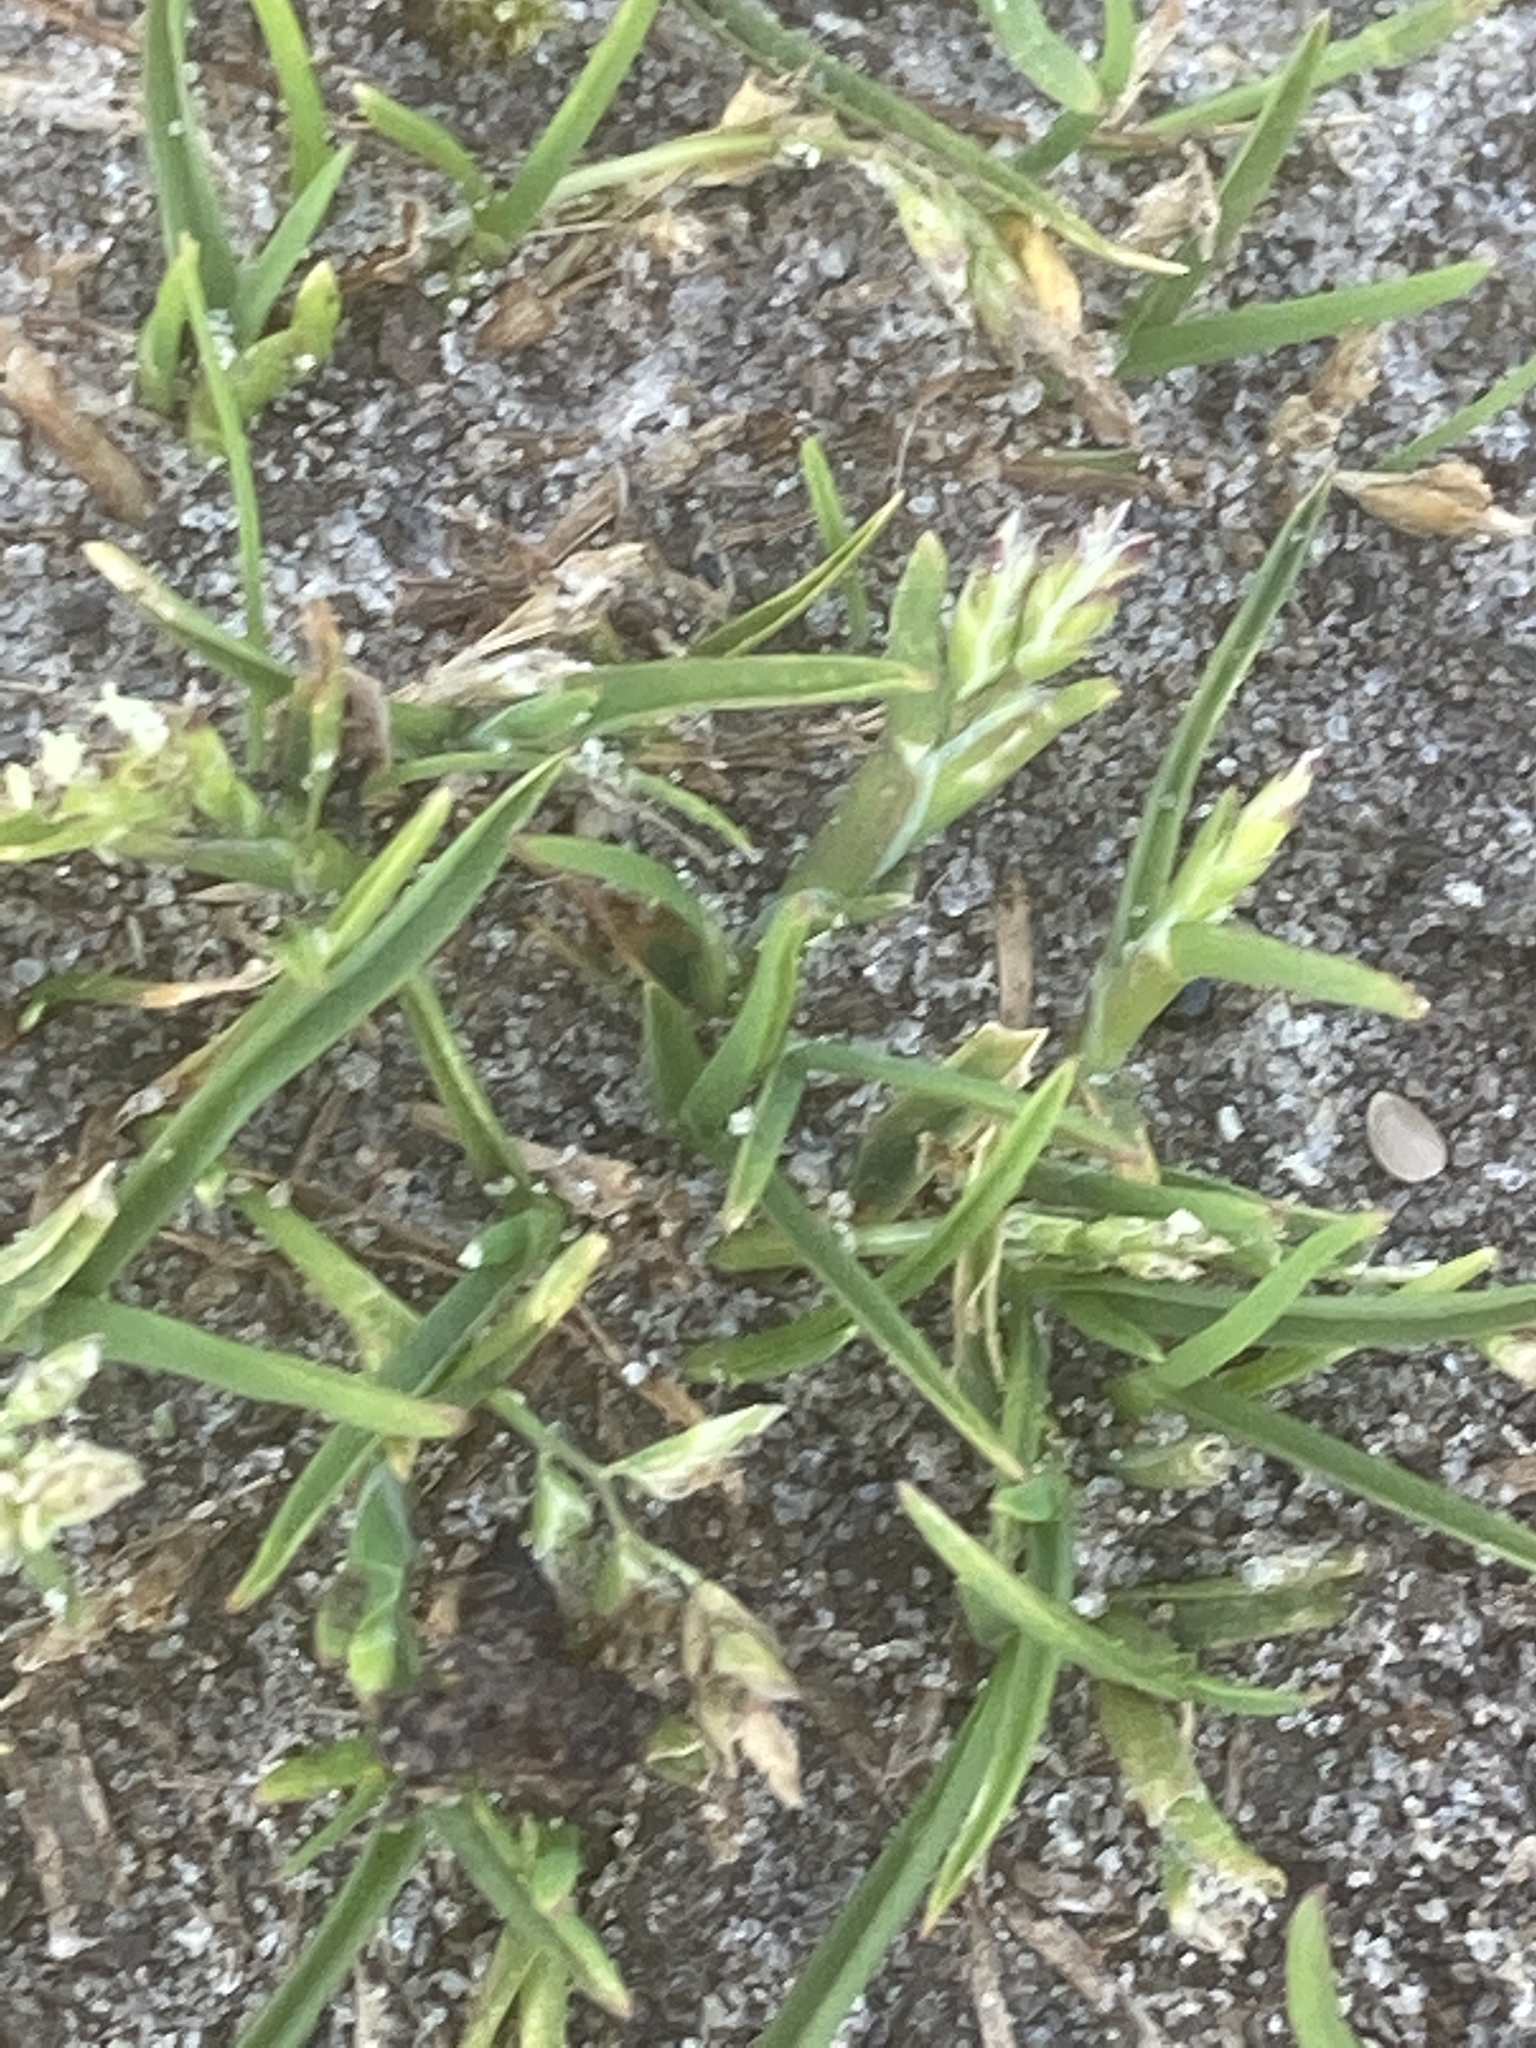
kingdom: Plantae
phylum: Tracheophyta
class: Liliopsida
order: Poales
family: Poaceae
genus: Poa
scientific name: Poa annua
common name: Annual bluegrass
